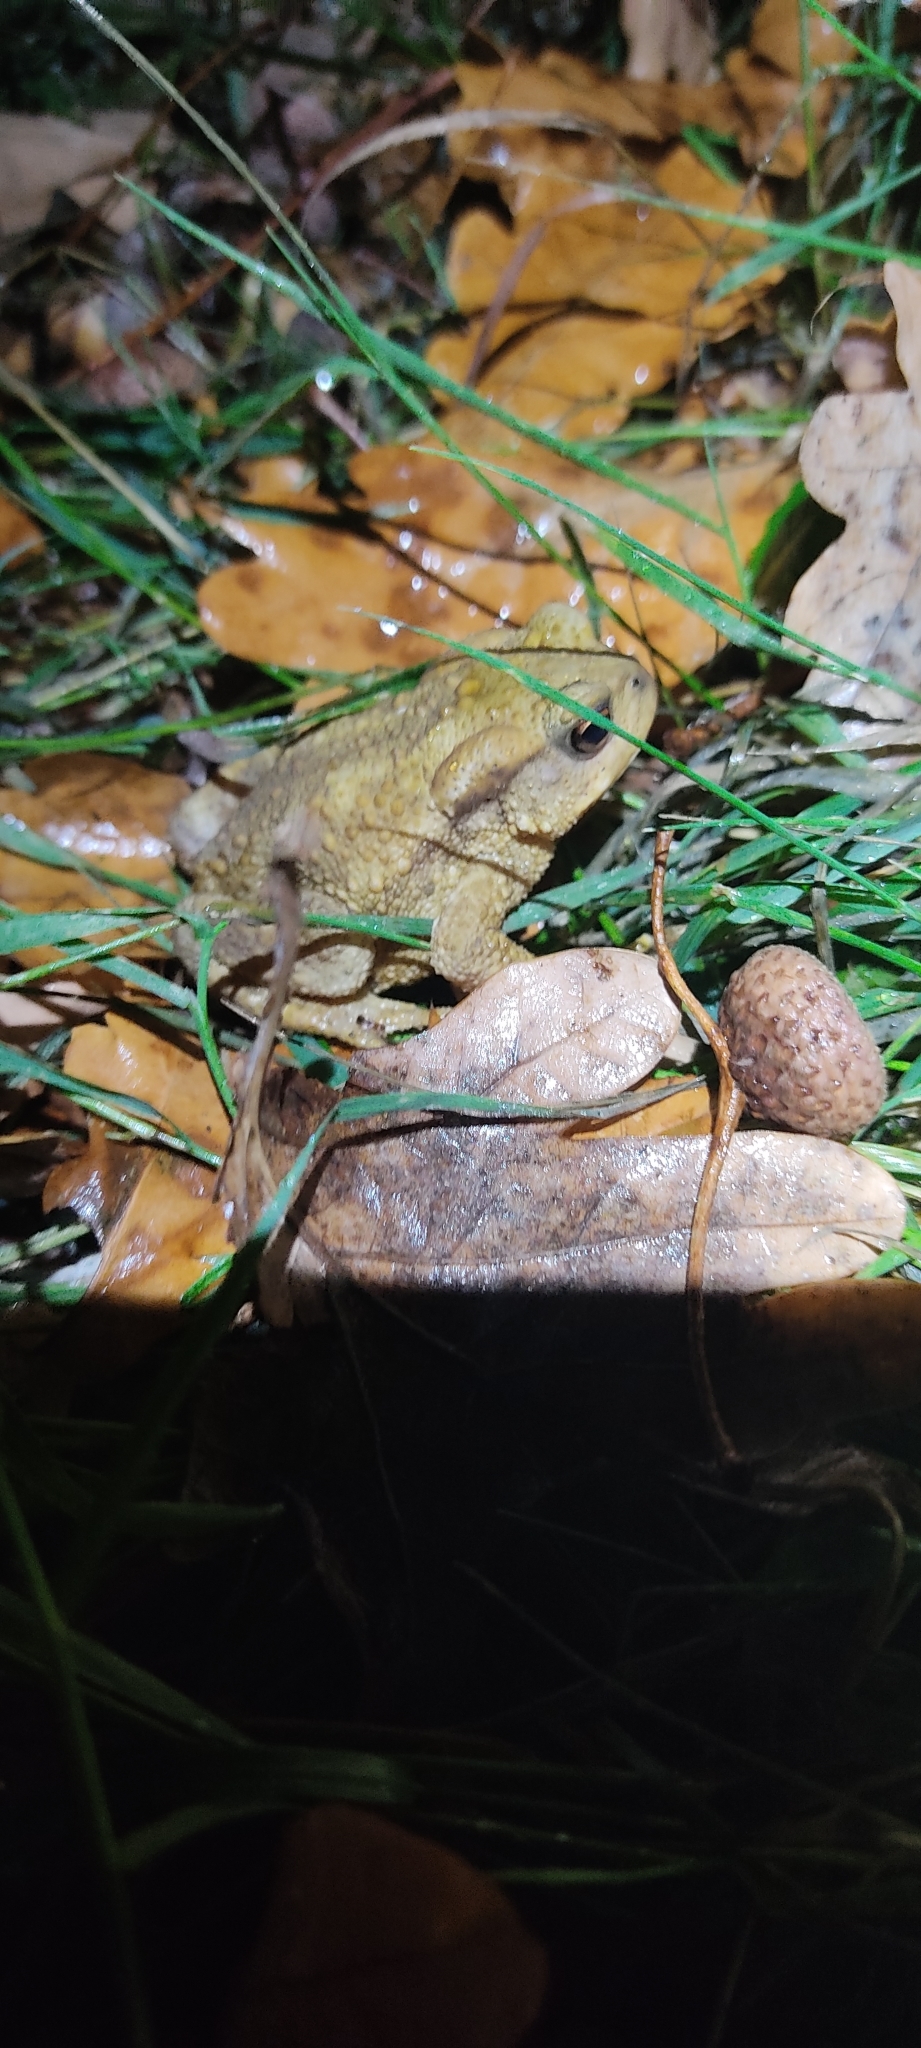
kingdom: Animalia
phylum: Chordata
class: Amphibia
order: Anura
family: Bufonidae
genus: Bufo
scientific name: Bufo spinosus
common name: Western common toad
